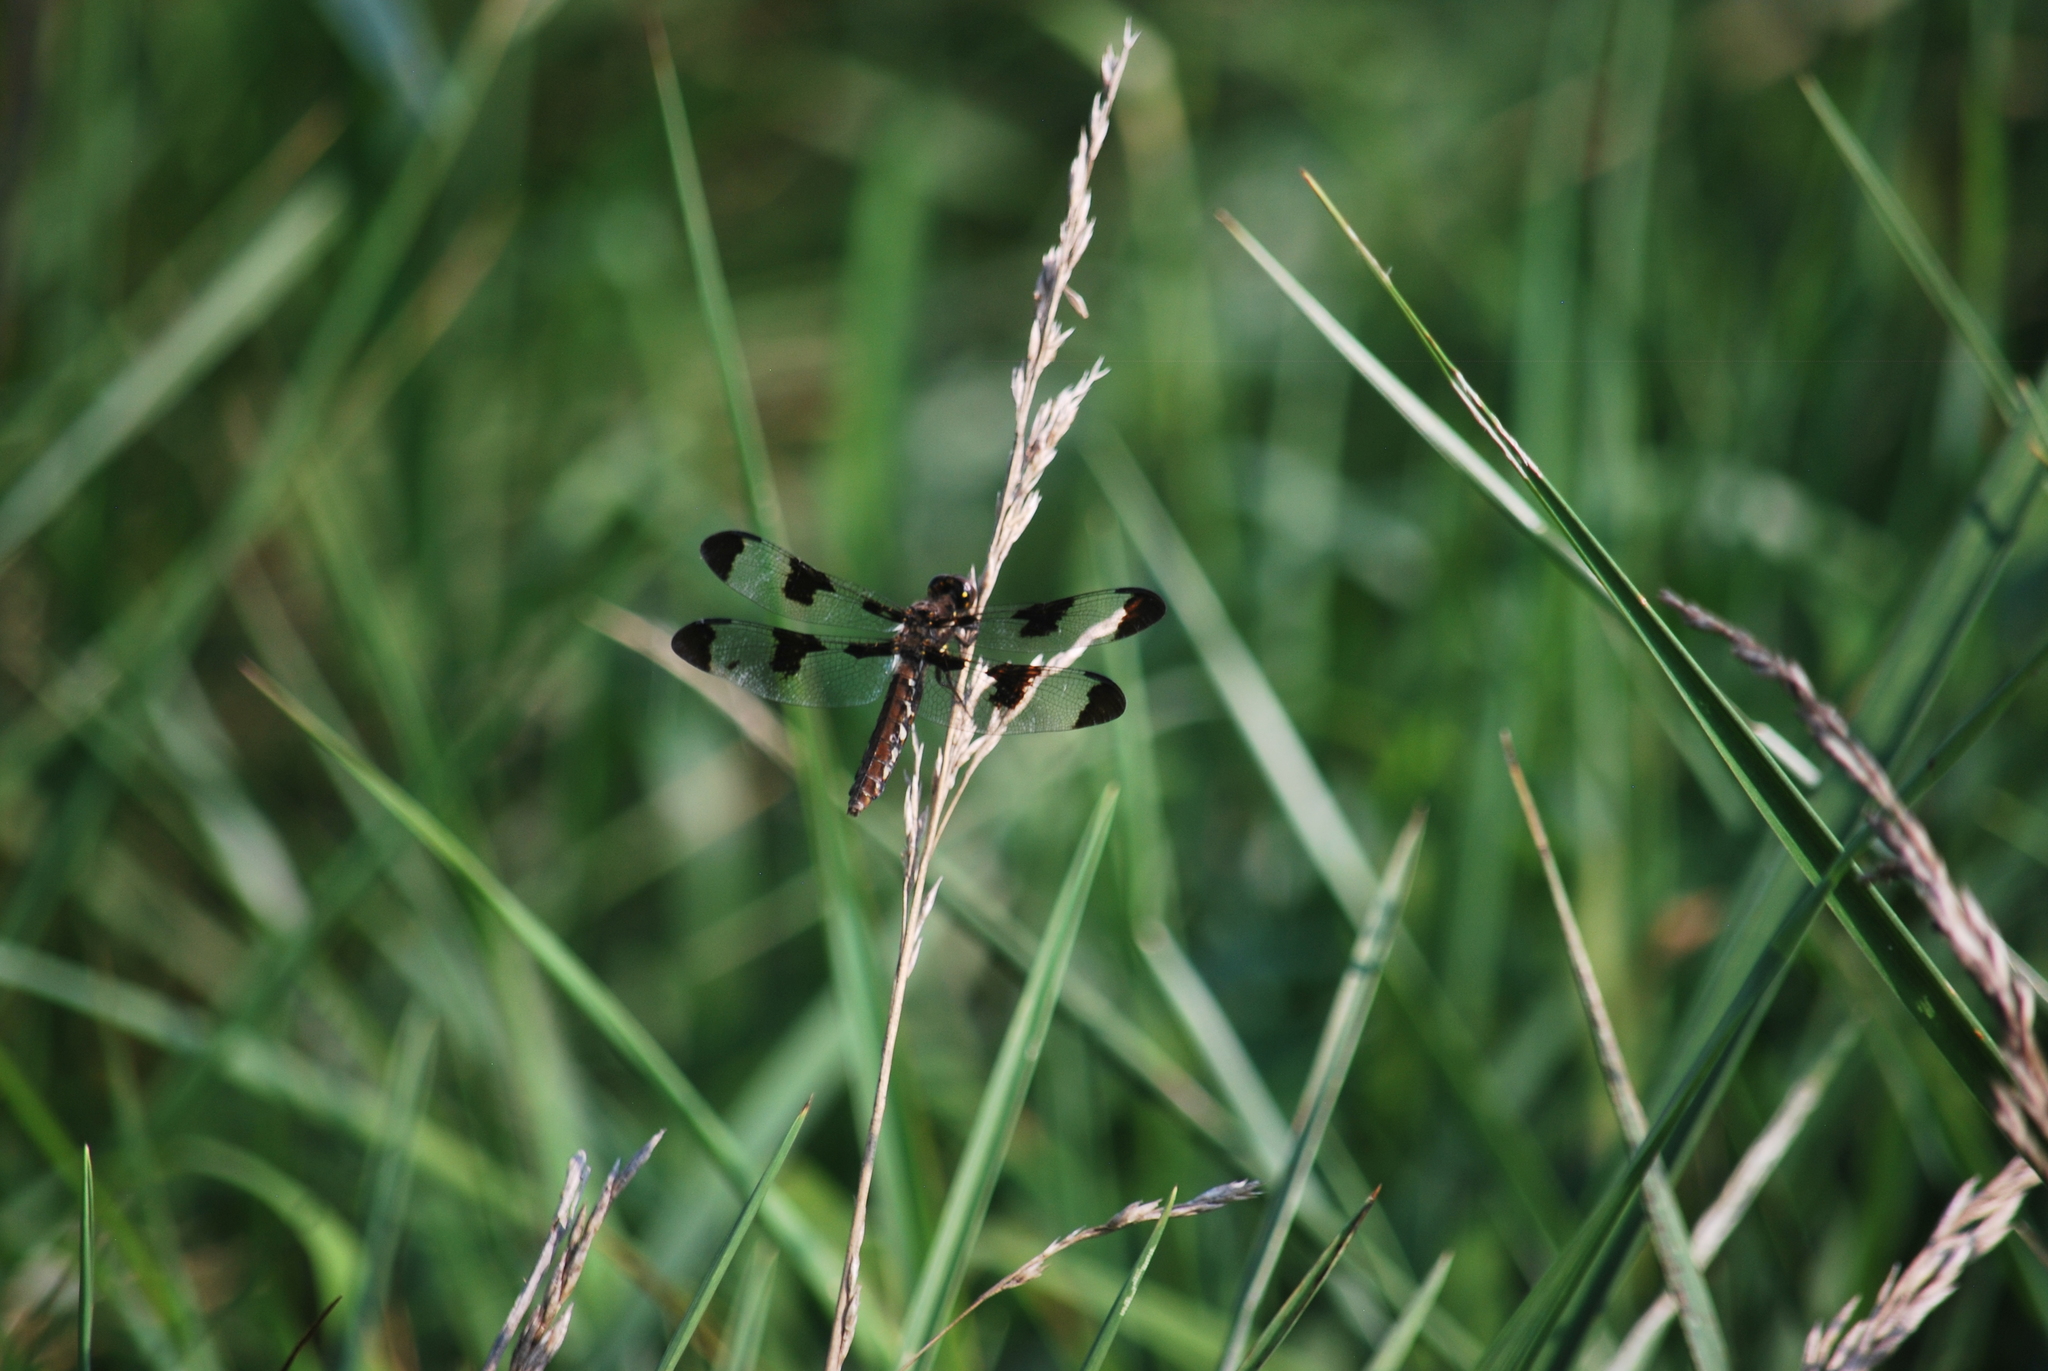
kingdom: Animalia
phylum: Arthropoda
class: Insecta
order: Odonata
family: Libellulidae
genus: Plathemis
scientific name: Plathemis lydia
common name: Common whitetail
